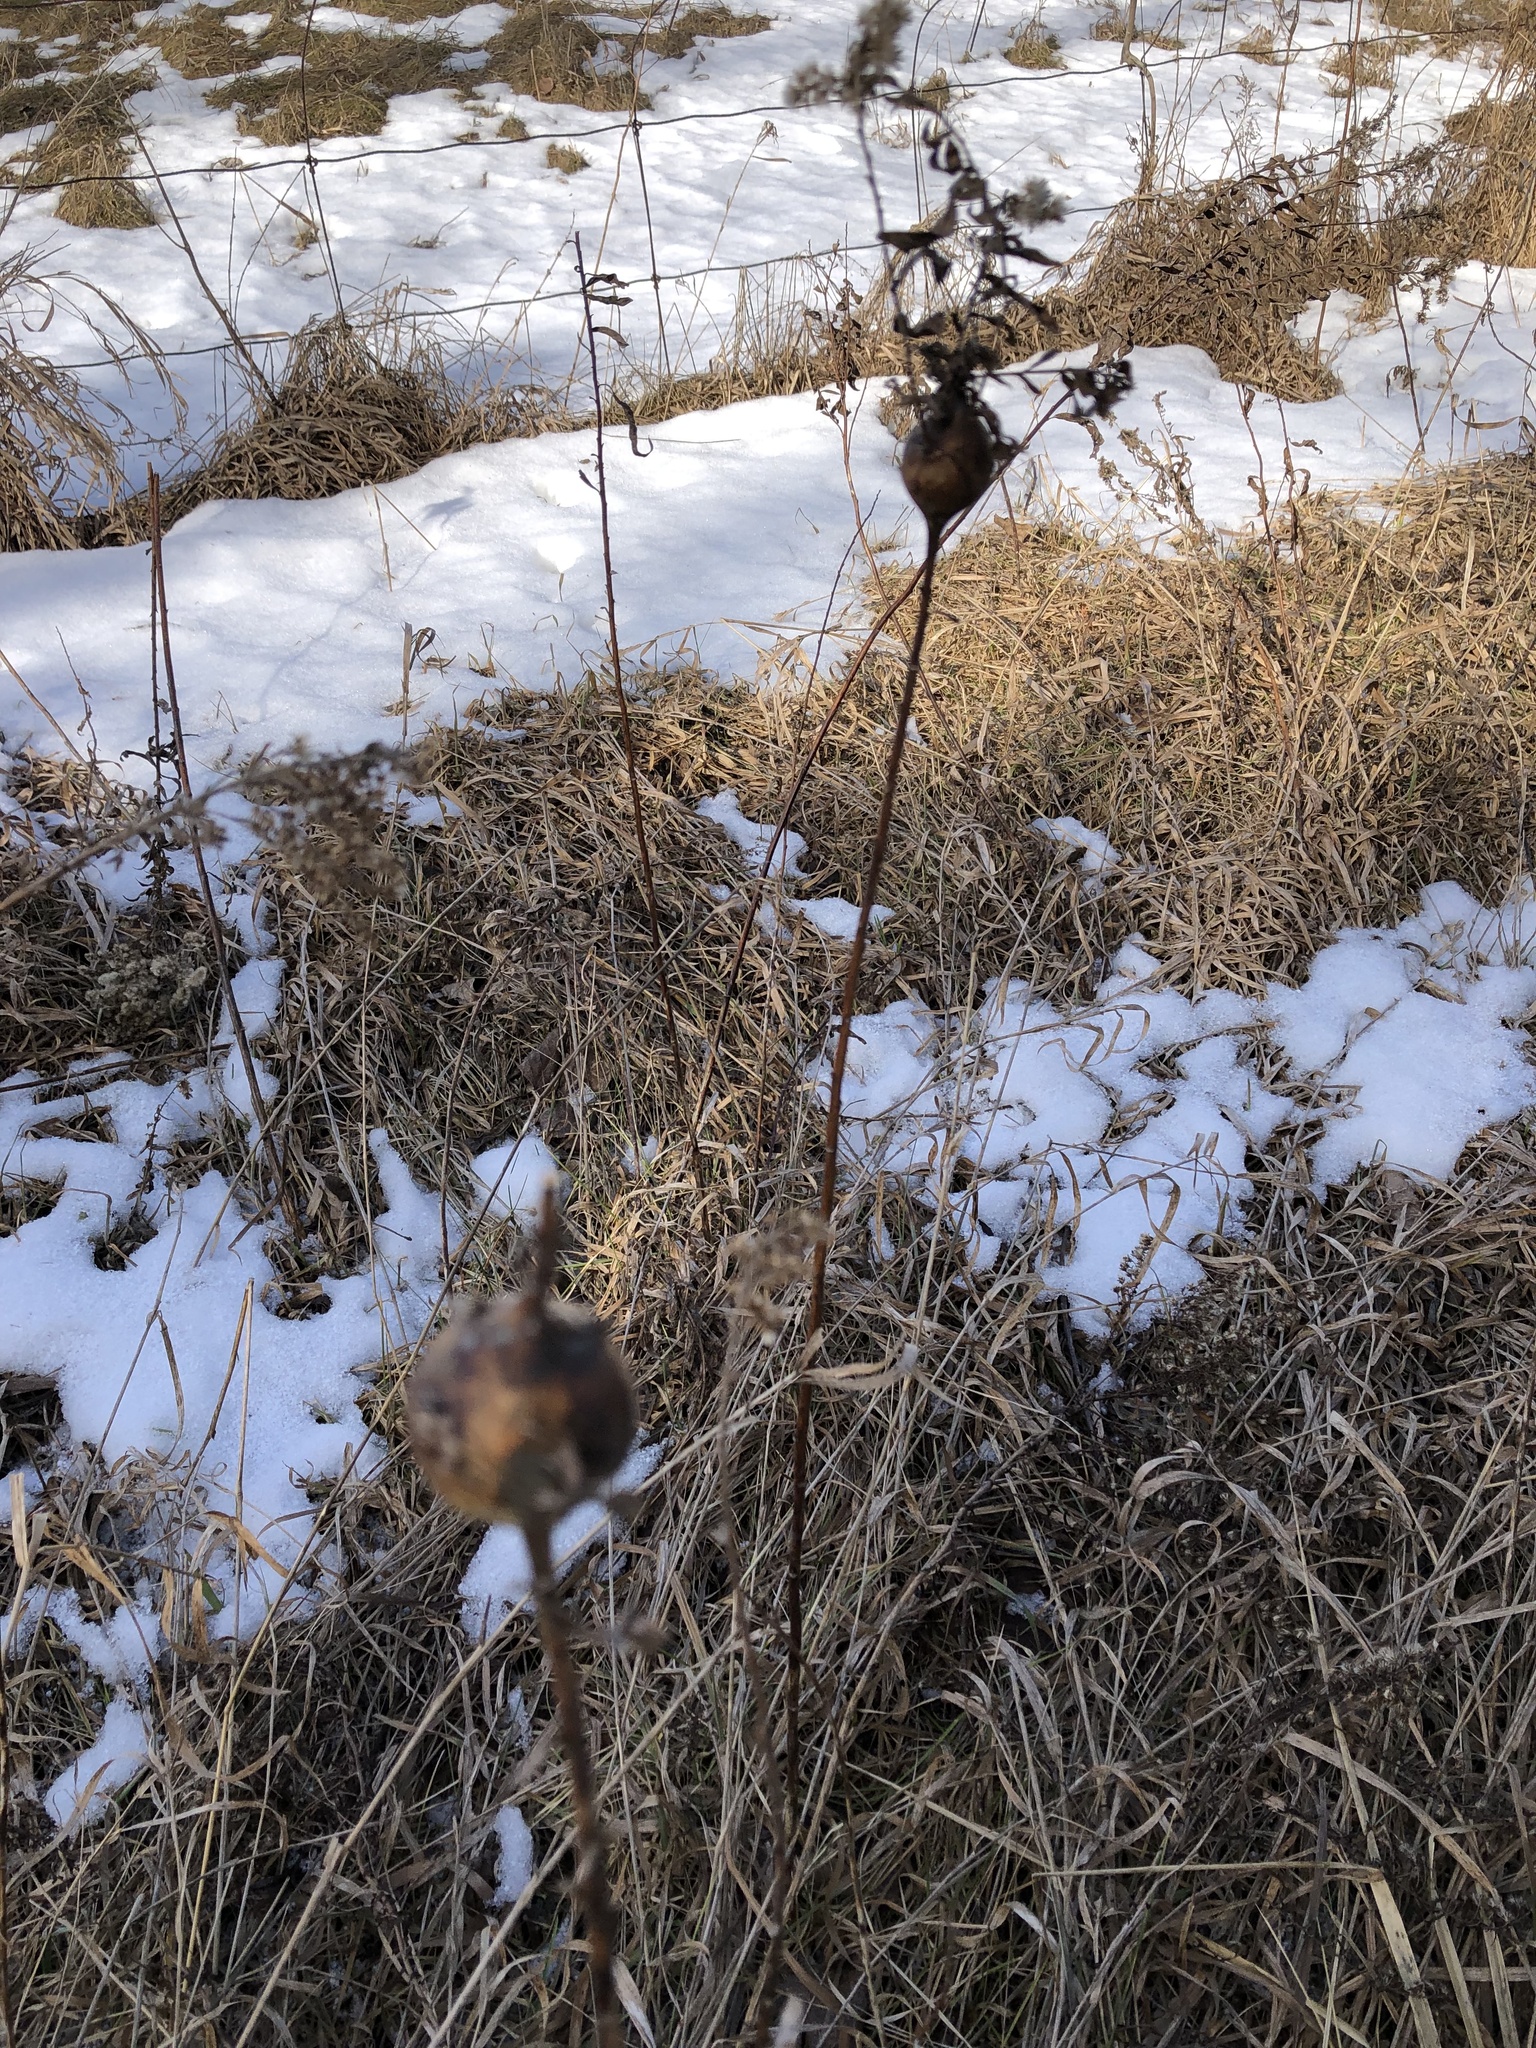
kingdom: Animalia
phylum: Arthropoda
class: Insecta
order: Diptera
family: Tephritidae
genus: Eurosta
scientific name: Eurosta solidaginis
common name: Goldenrod gall fly
